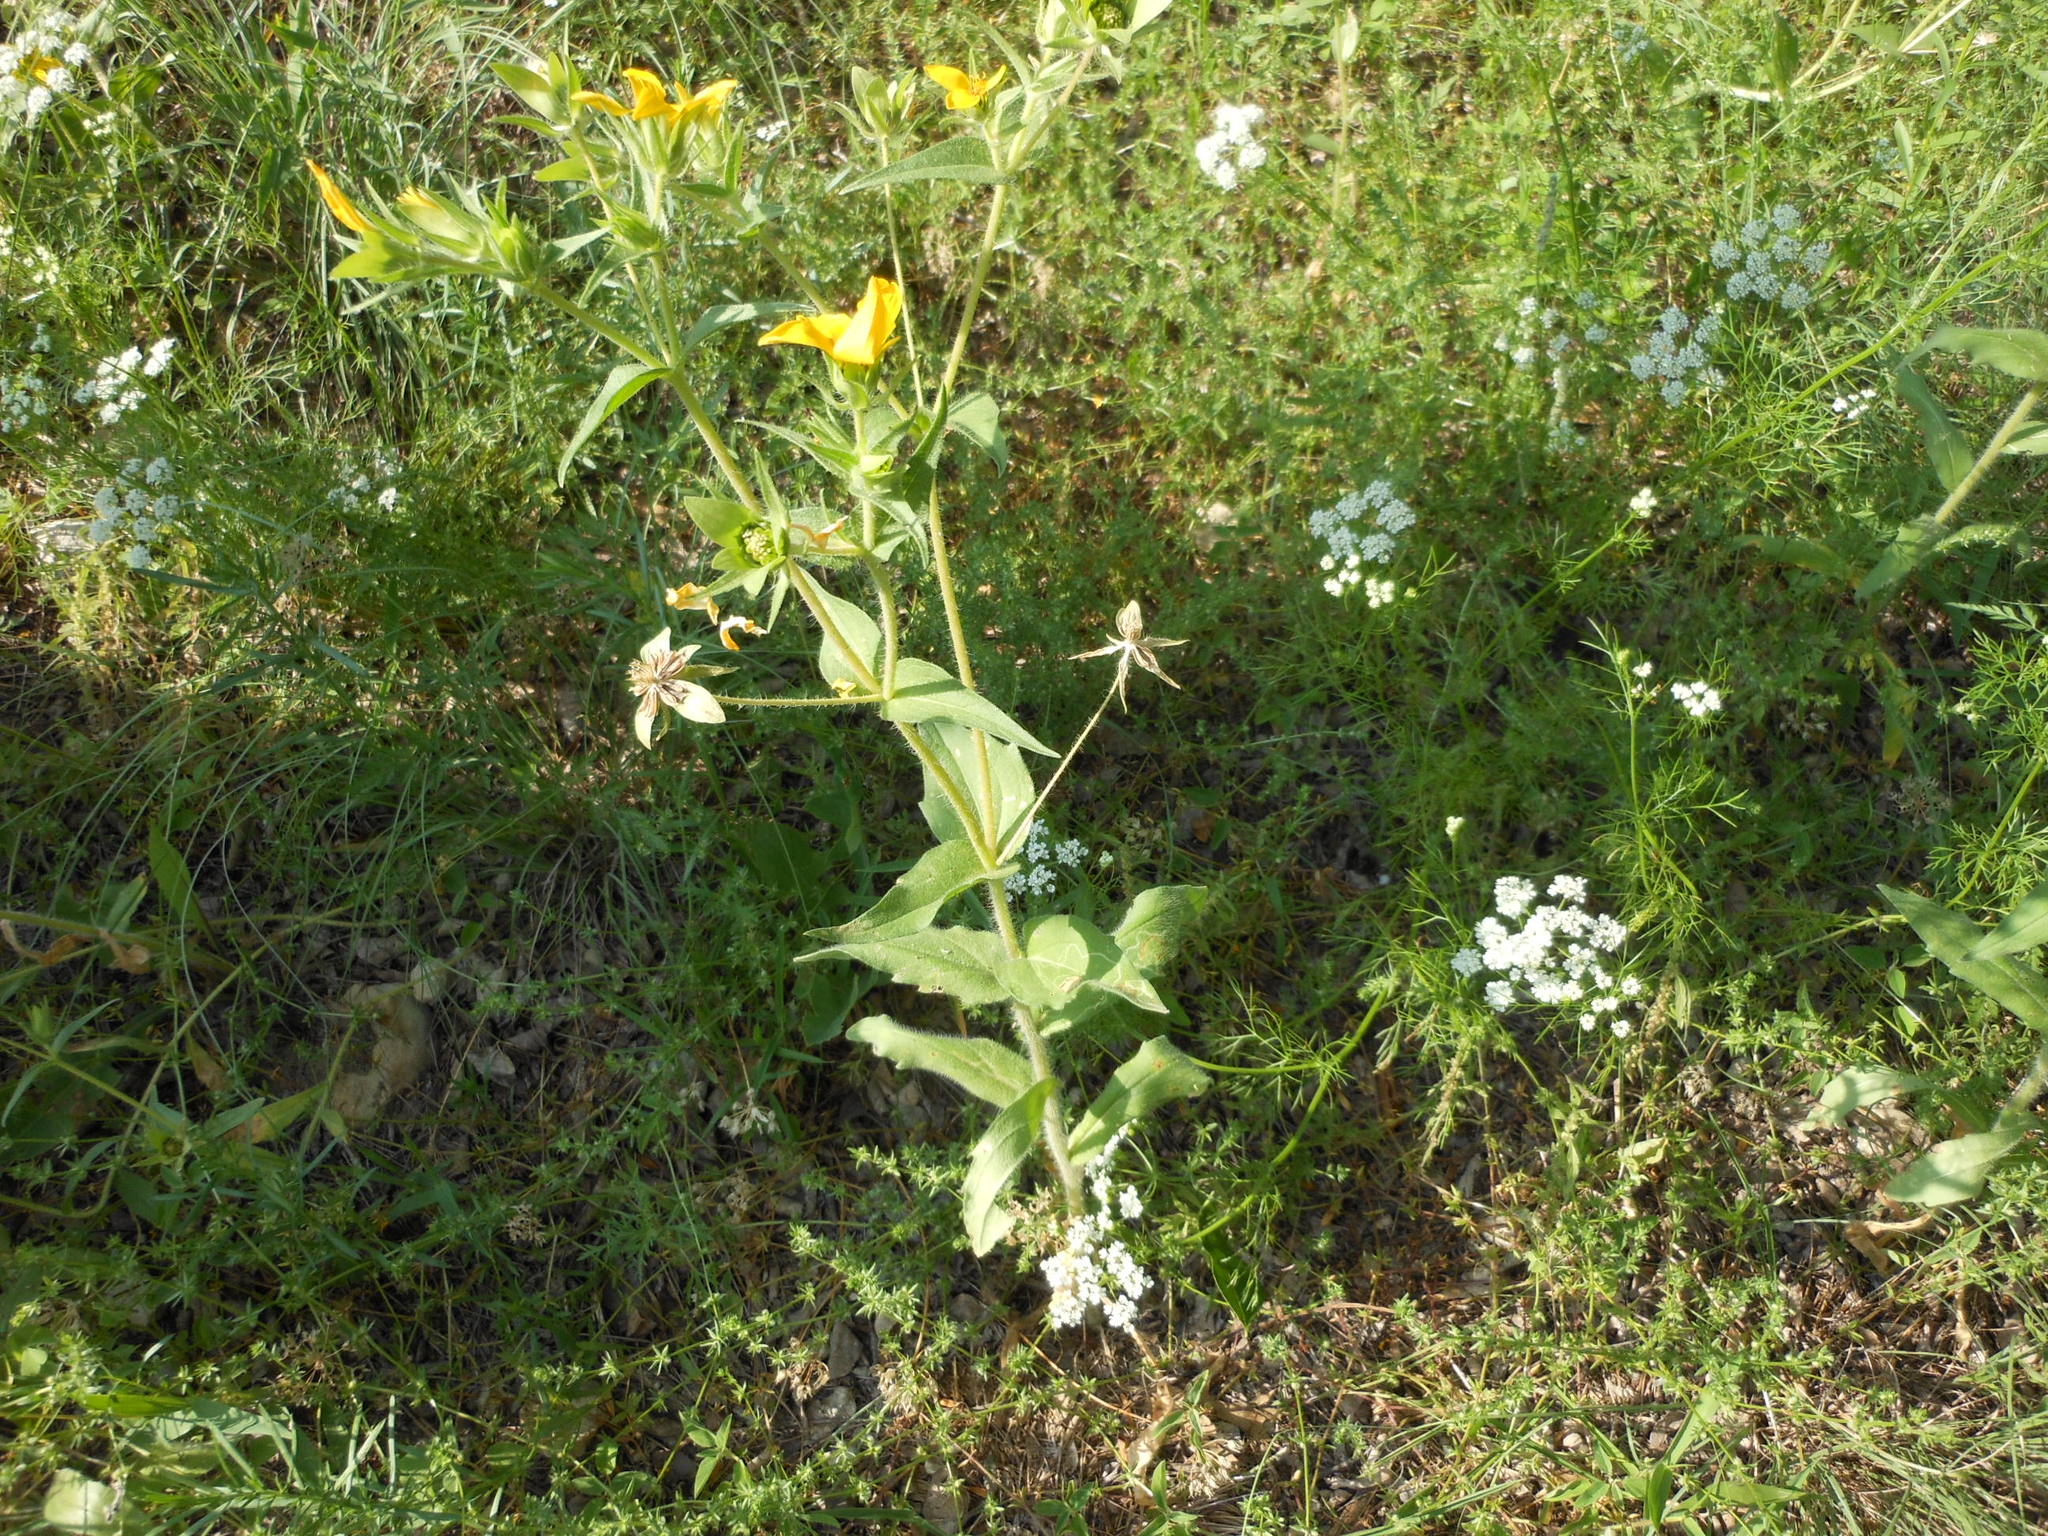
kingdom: Plantae
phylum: Tracheophyta
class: Magnoliopsida
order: Asterales
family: Asteraceae
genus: Lindheimera
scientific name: Lindheimera texana
